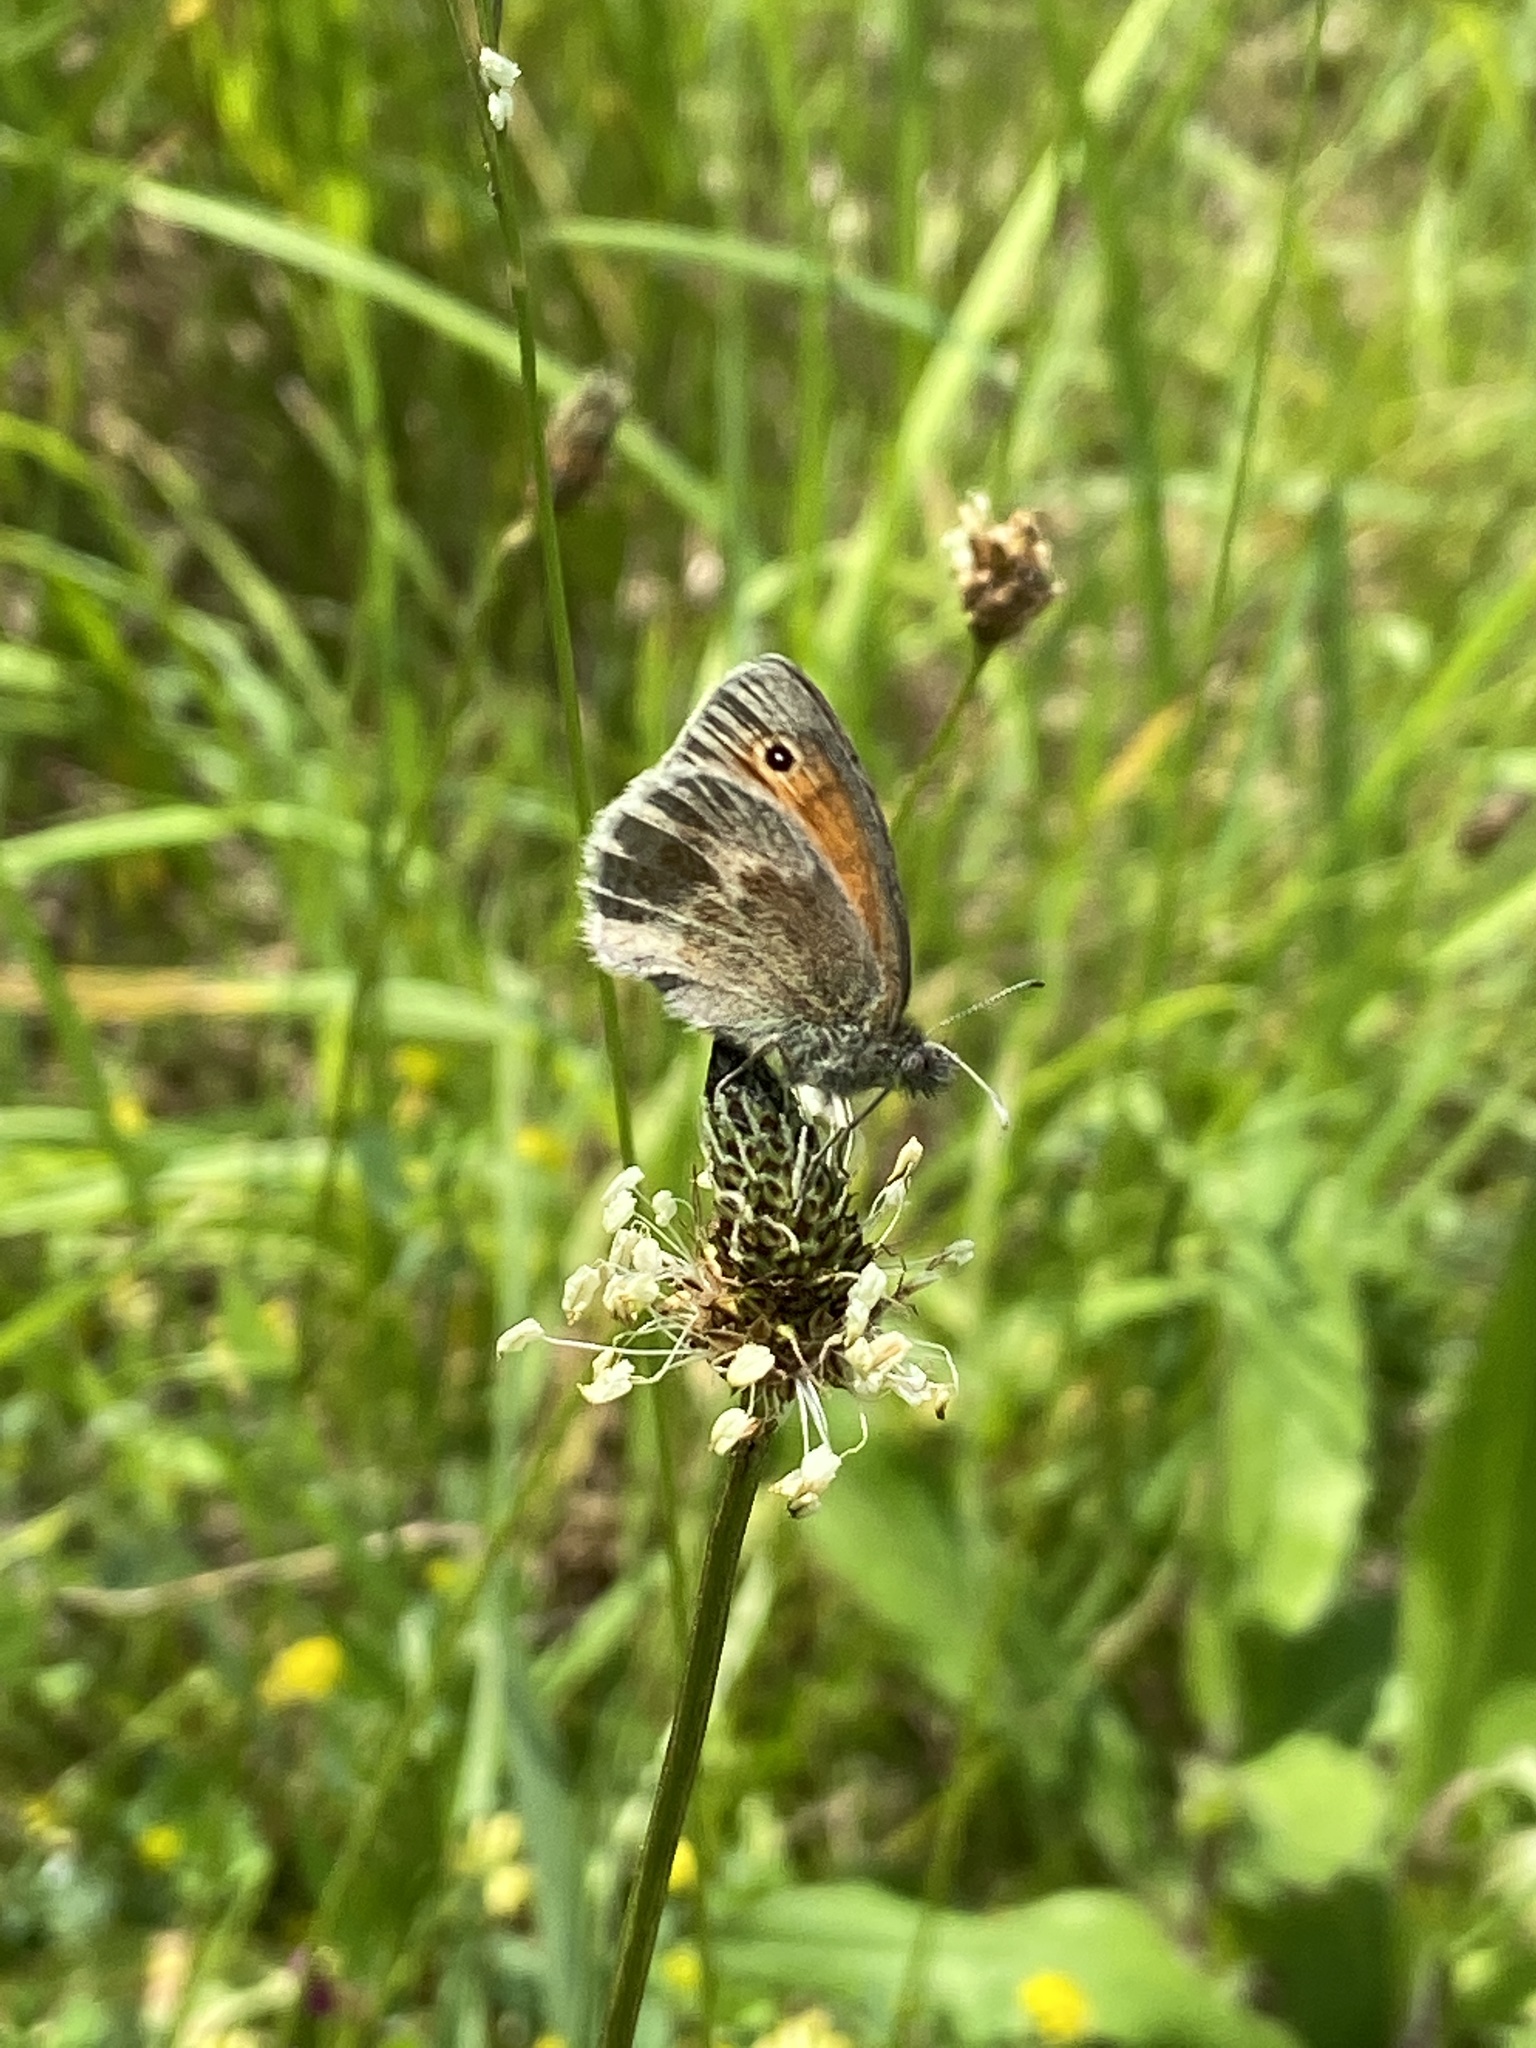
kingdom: Animalia
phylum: Arthropoda
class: Insecta
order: Lepidoptera
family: Nymphalidae
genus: Coenonympha
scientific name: Coenonympha pamphilus
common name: Small heath
